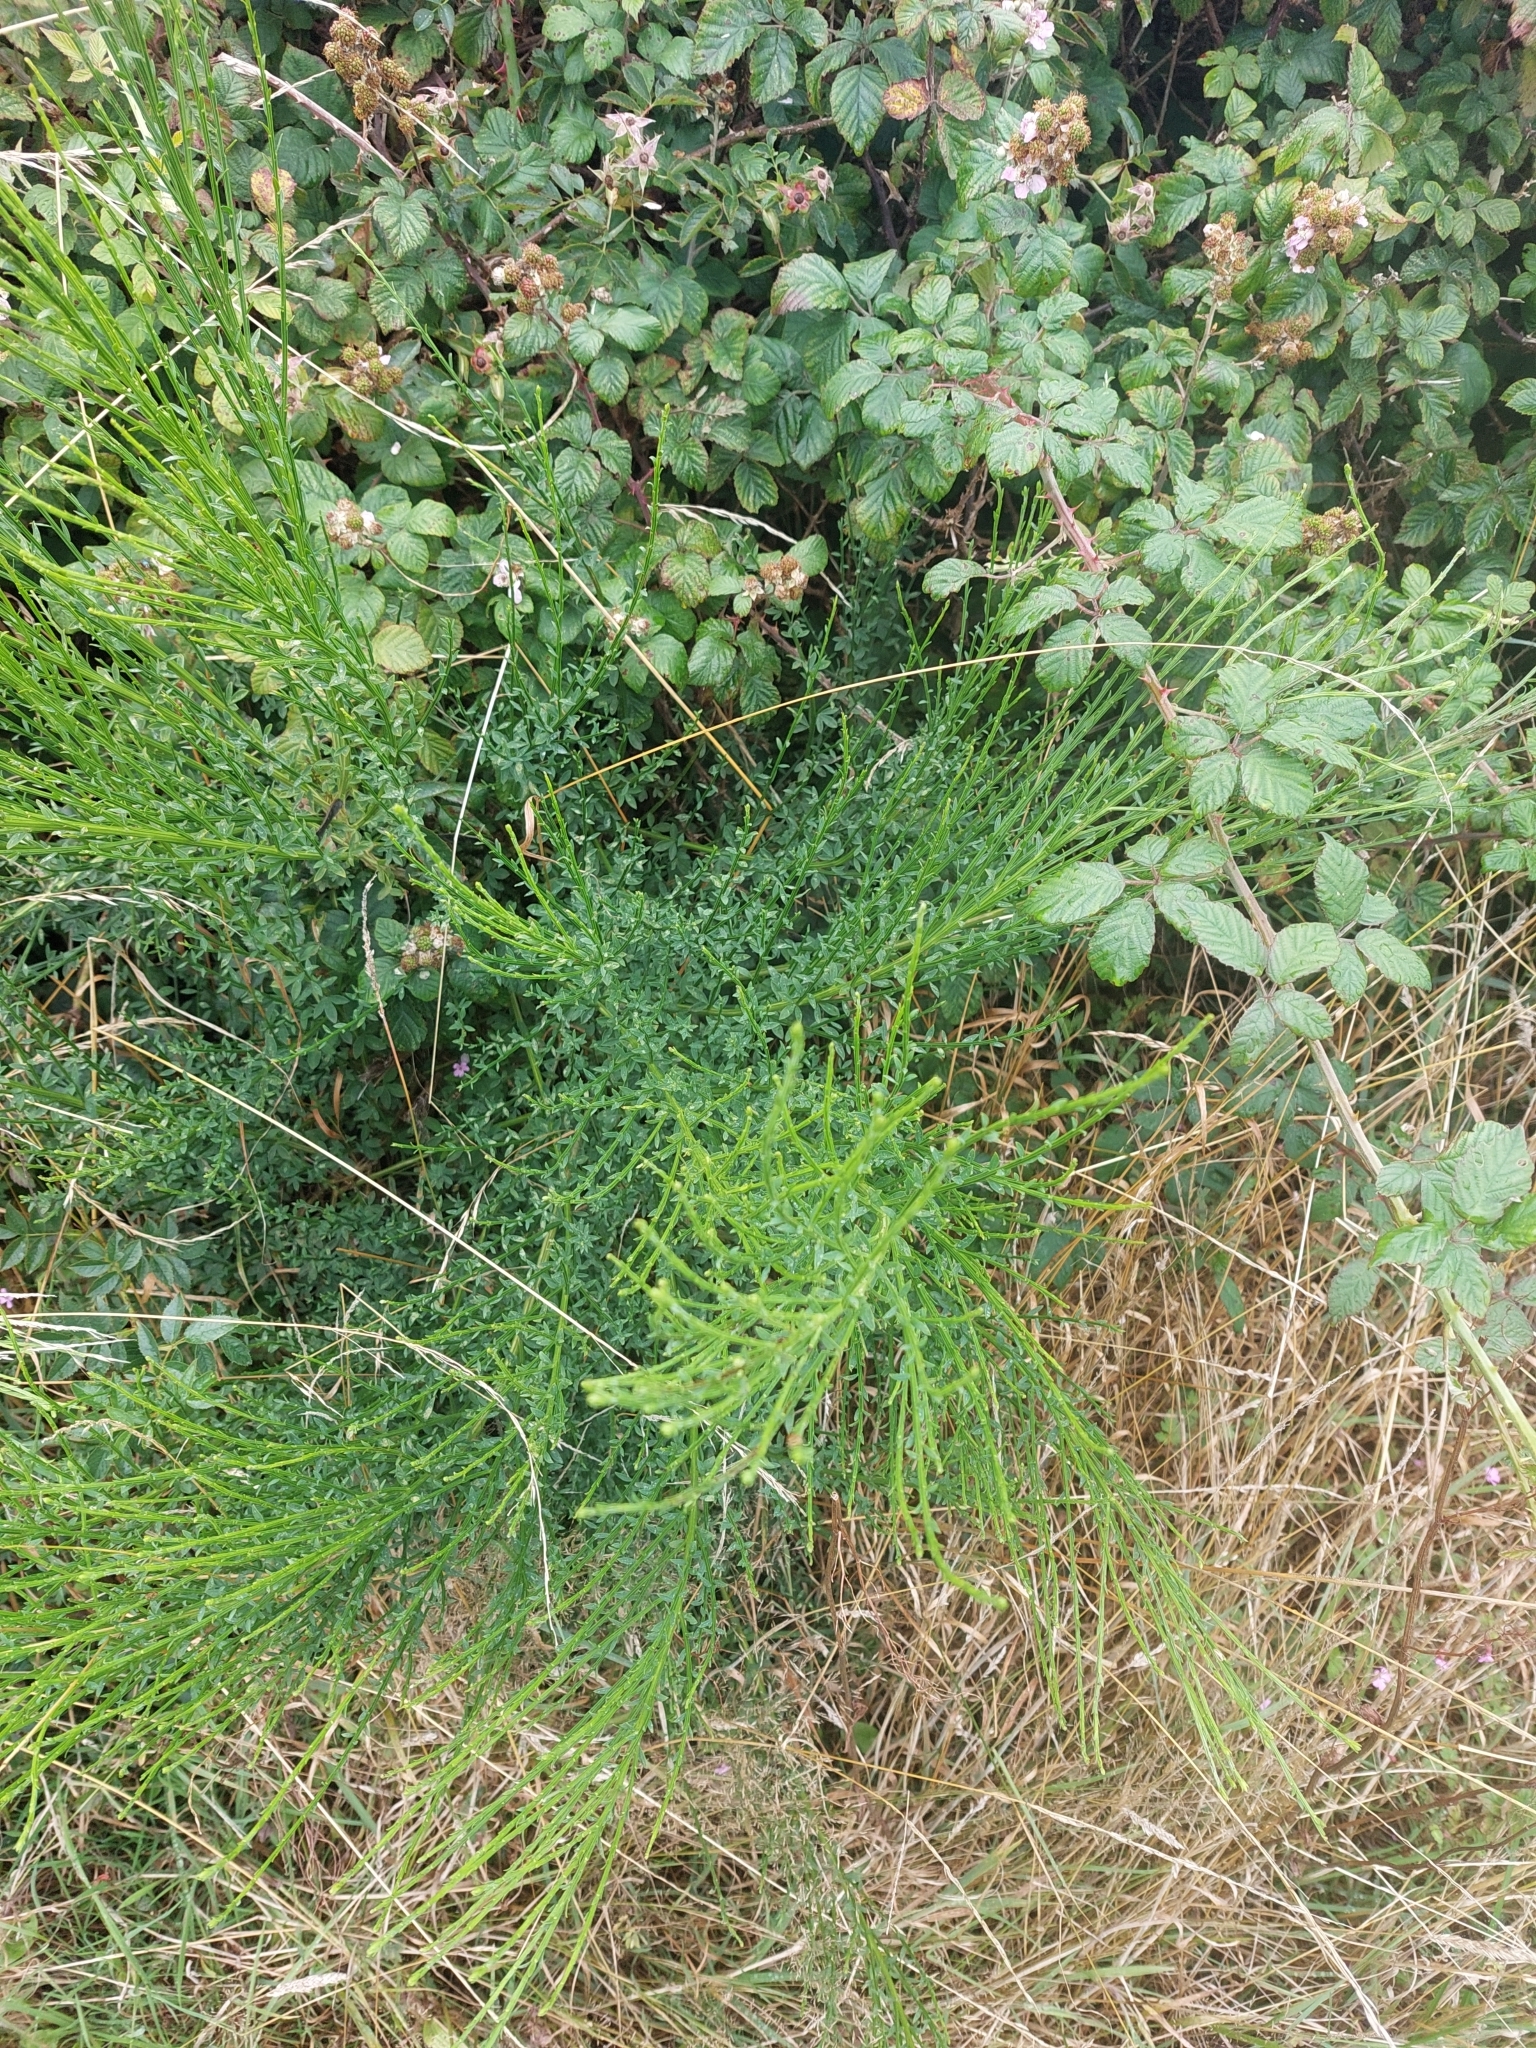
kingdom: Plantae
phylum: Tracheophyta
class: Magnoliopsida
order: Fabales
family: Fabaceae
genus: Cytisus
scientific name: Cytisus scoparius
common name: Scotch broom
